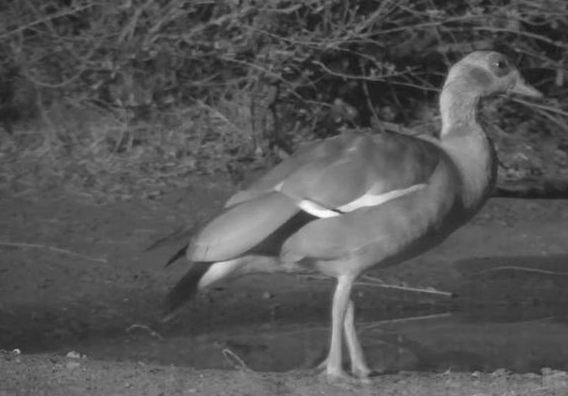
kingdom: Animalia
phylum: Chordata
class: Aves
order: Anseriformes
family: Anatidae
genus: Alopochen
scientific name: Alopochen aegyptiaca
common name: Egyptian goose
